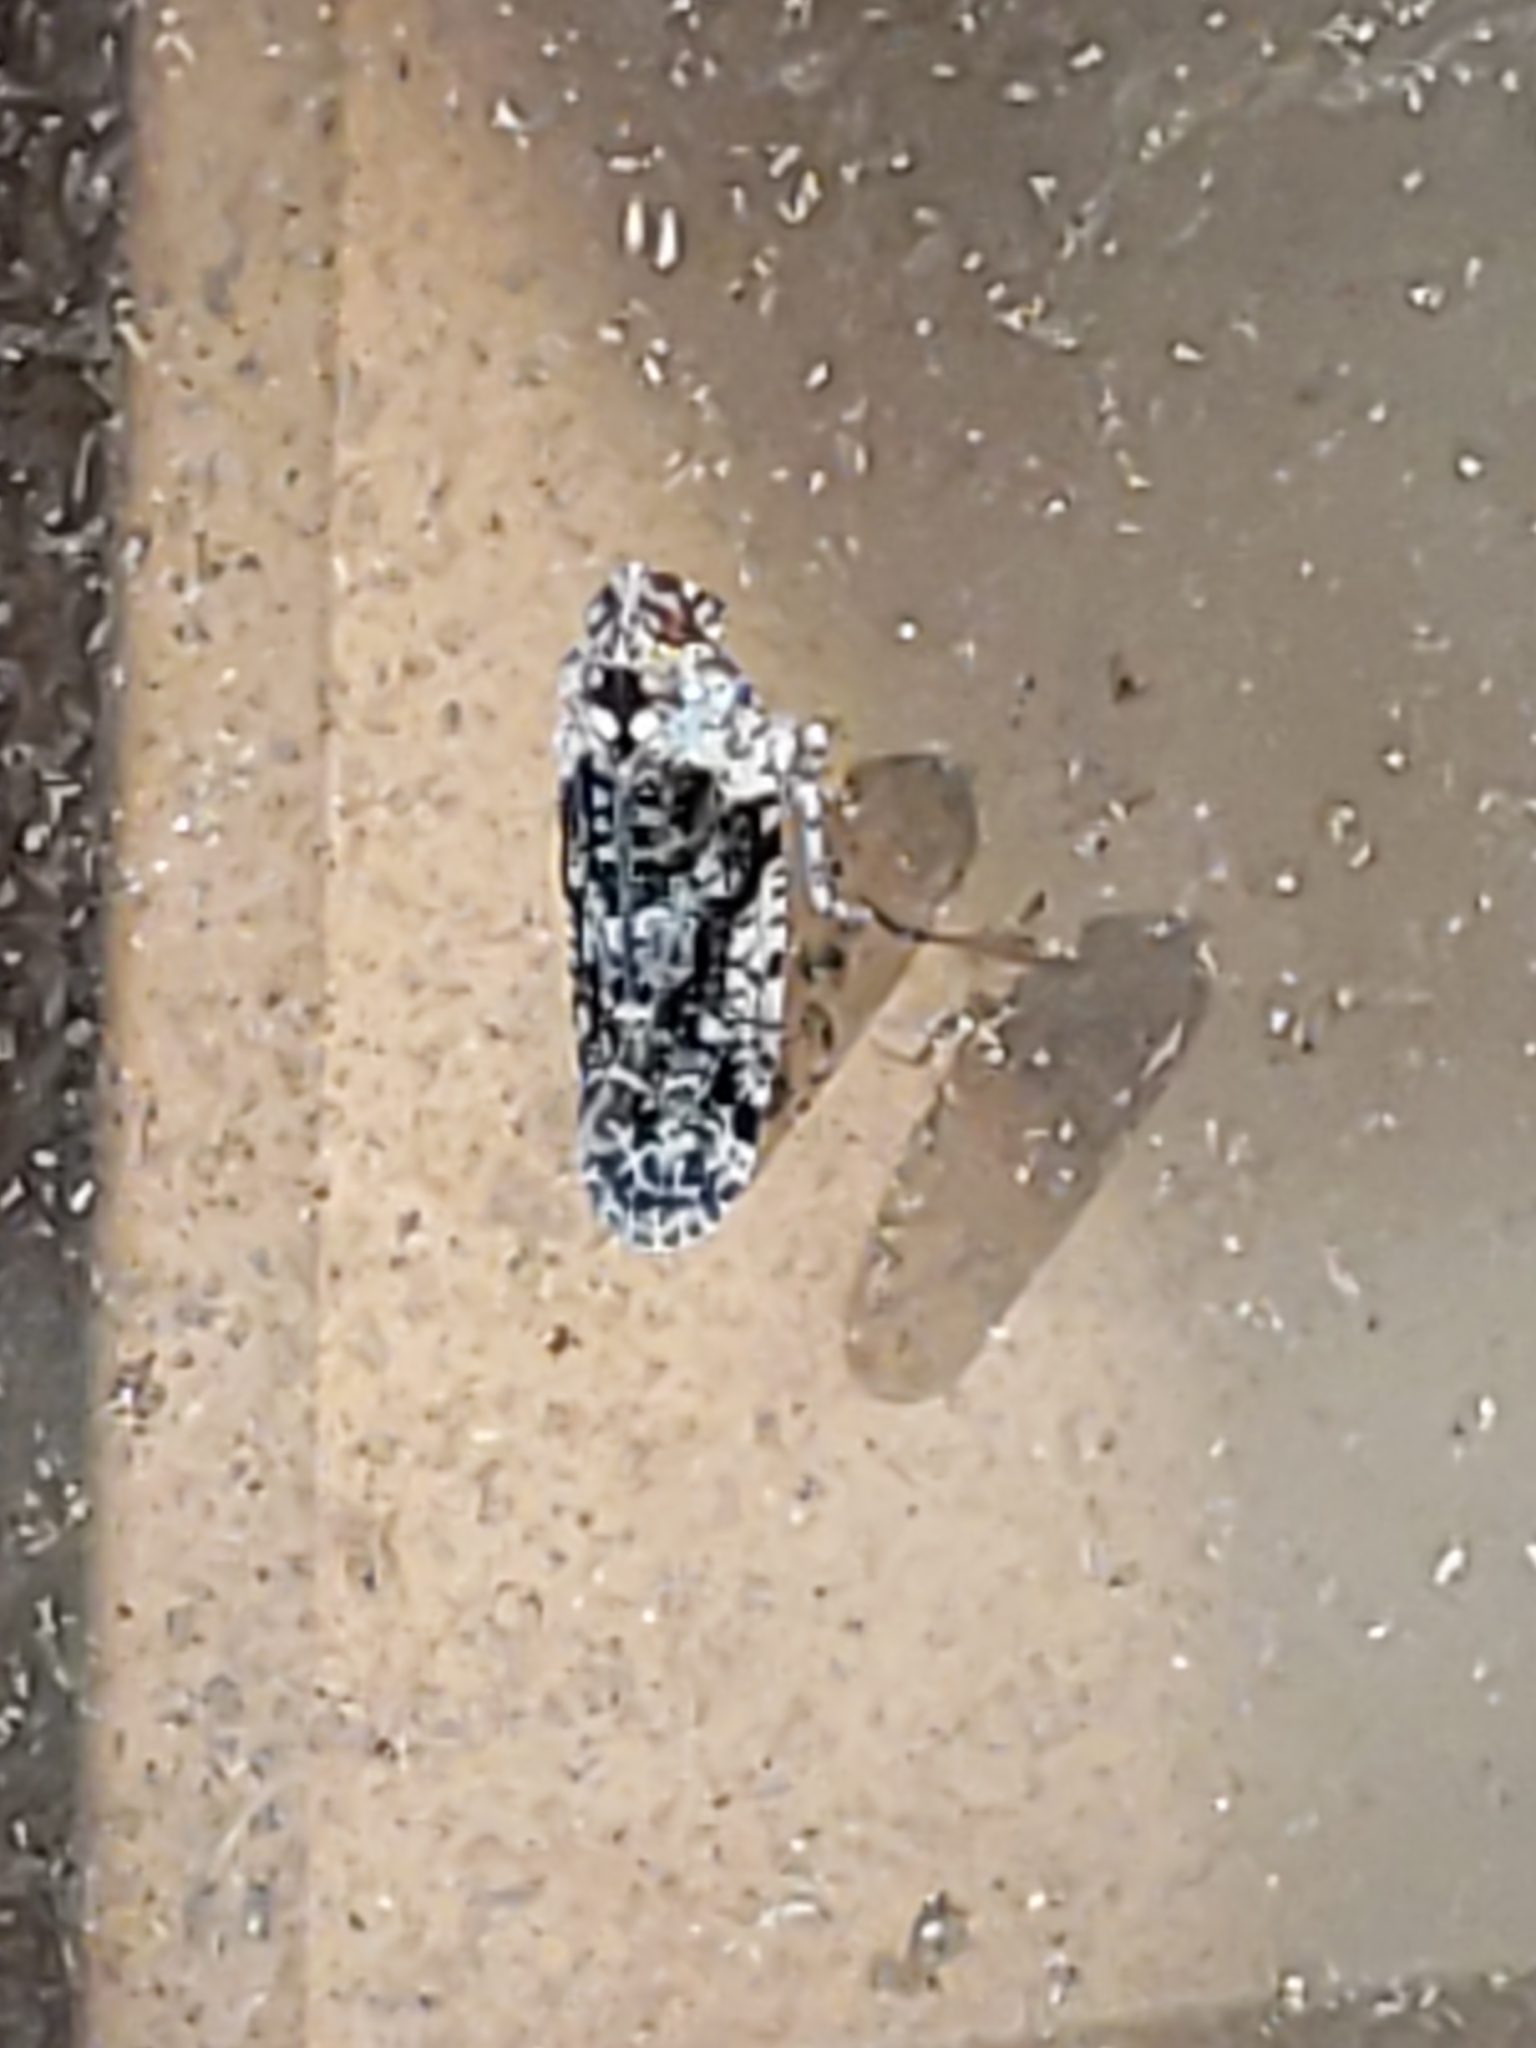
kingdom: Animalia
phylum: Arthropoda
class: Insecta
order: Hemiptera
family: Achilidae
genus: Catonia
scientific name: Catonia nava
